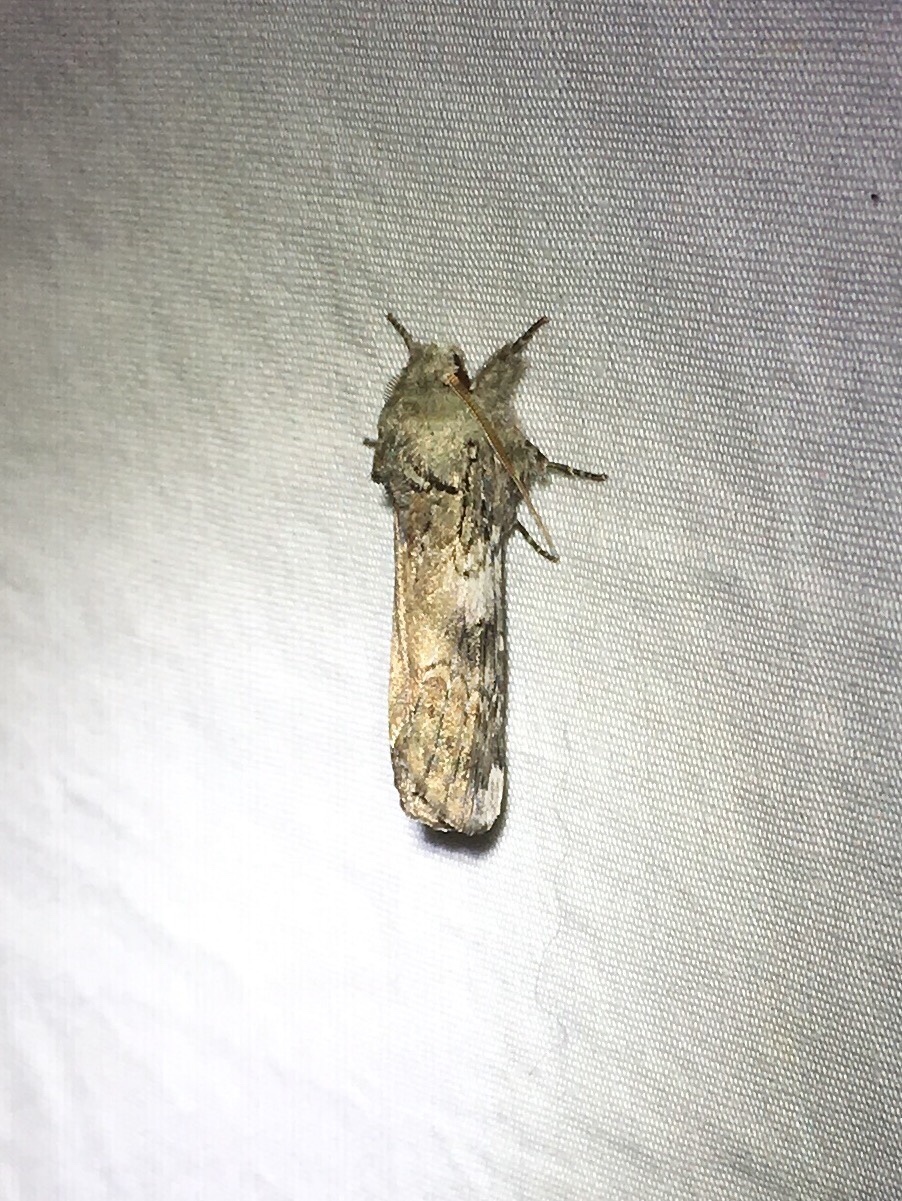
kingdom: Animalia
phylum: Arthropoda
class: Insecta
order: Lepidoptera
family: Notodontidae
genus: Schizura
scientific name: Schizura
